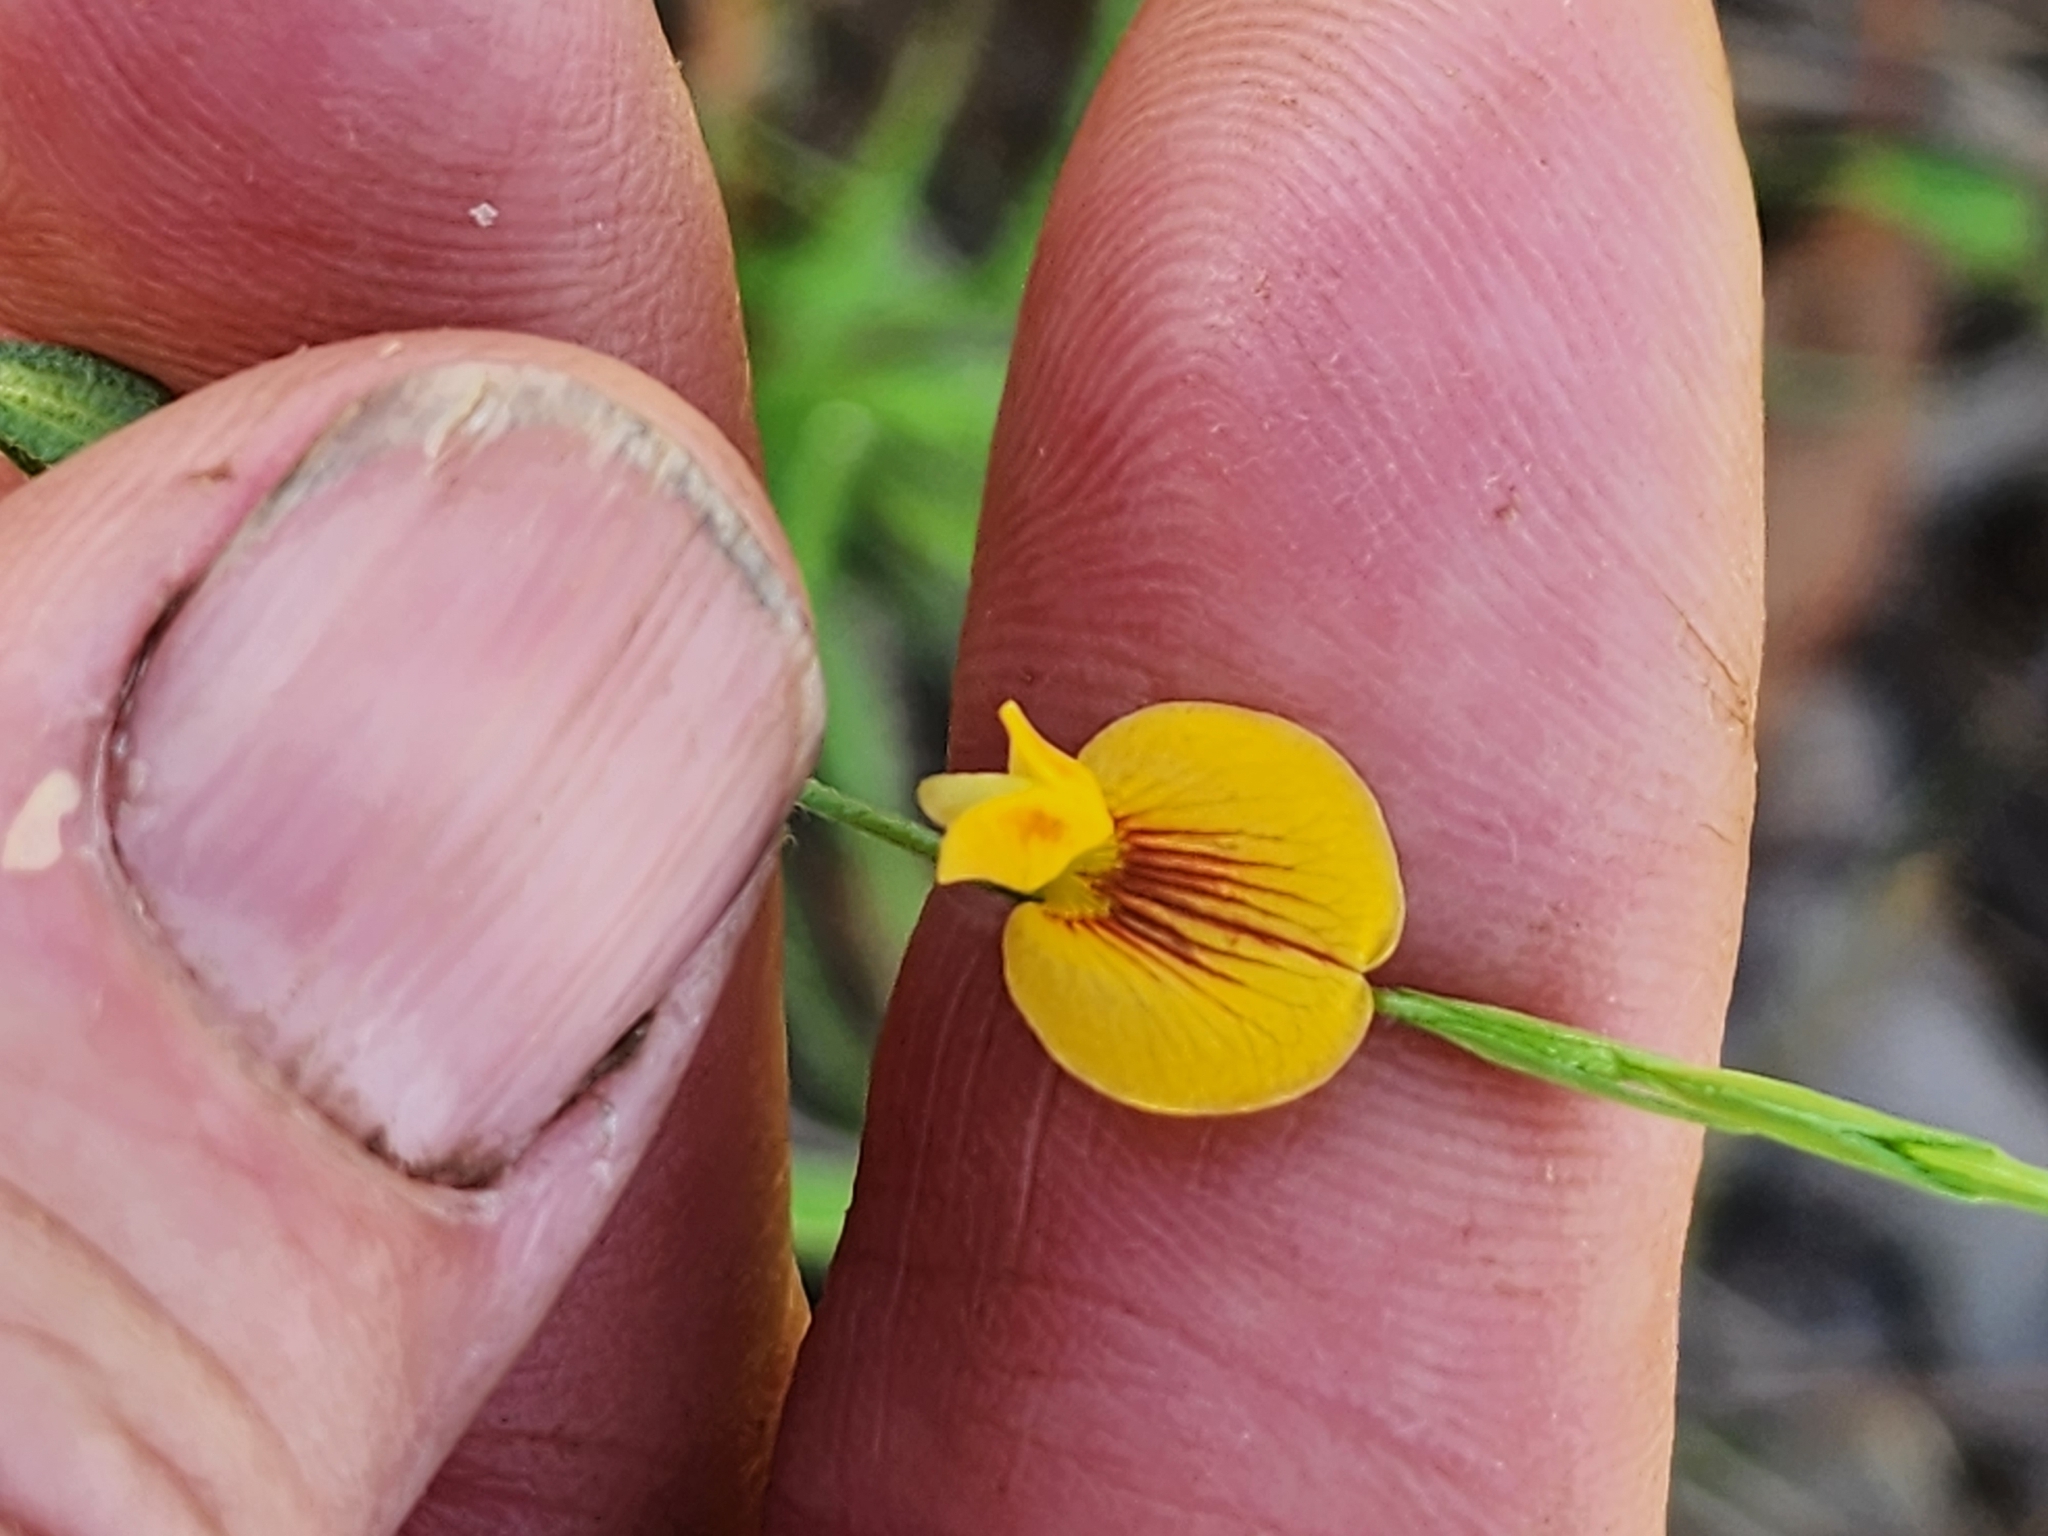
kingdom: Plantae
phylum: Tracheophyta
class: Magnoliopsida
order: Fabales
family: Fabaceae
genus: Zornia
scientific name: Zornia dyctiocarpa
